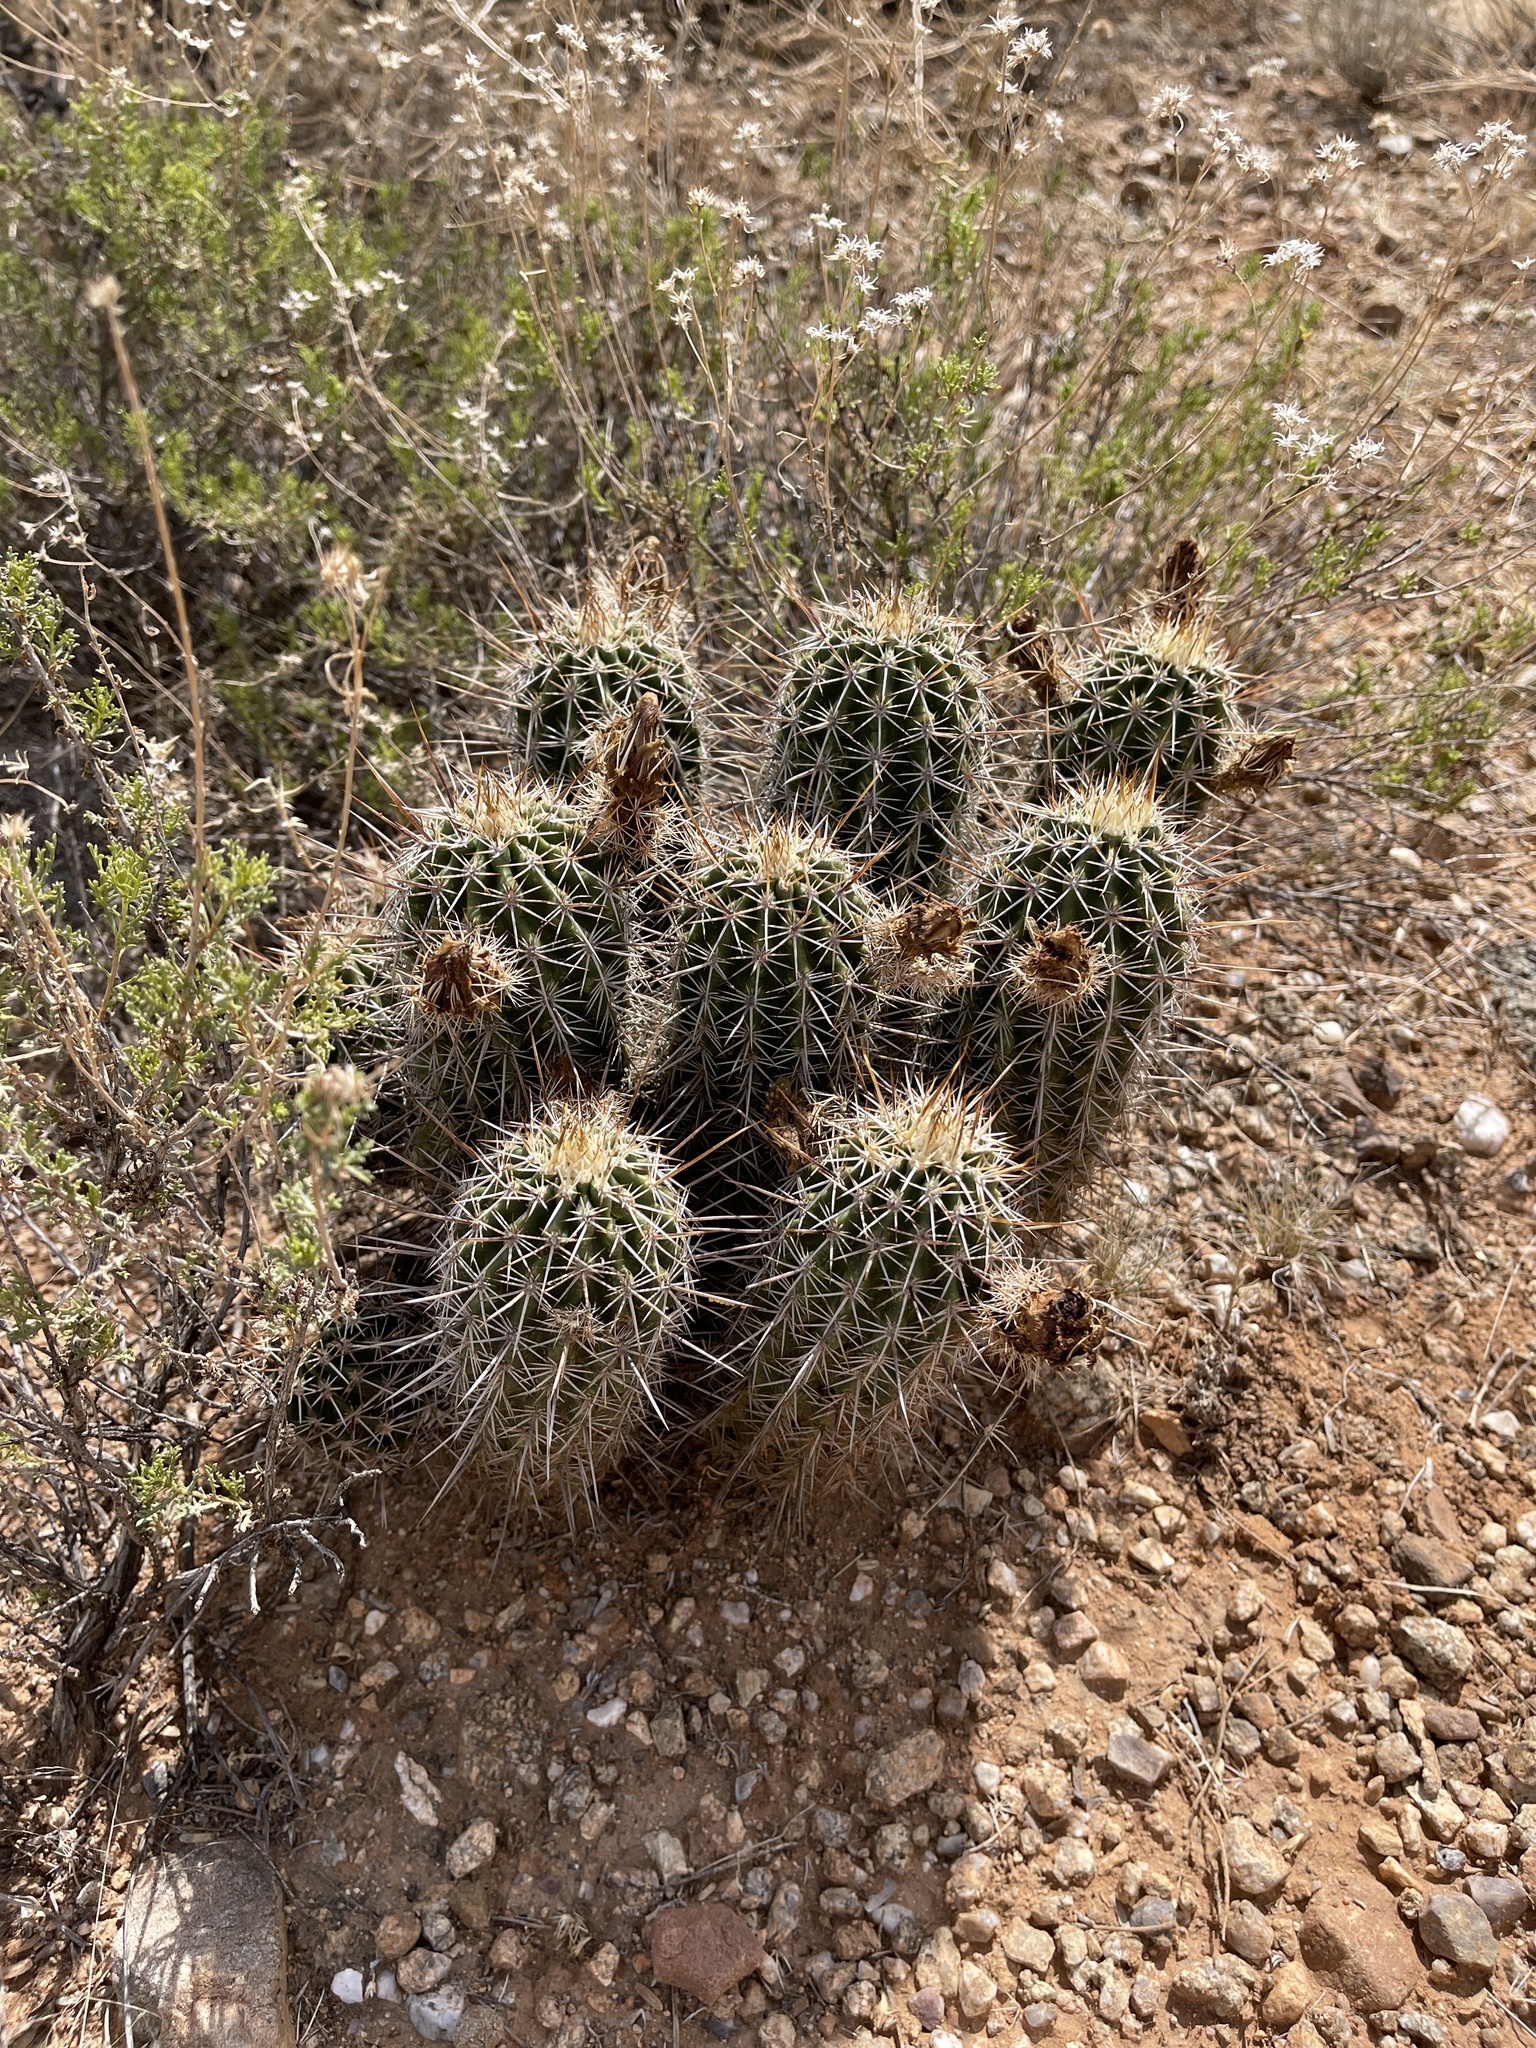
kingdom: Plantae
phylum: Tracheophyta
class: Magnoliopsida
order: Caryophyllales
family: Cactaceae
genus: Echinocereus
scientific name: Echinocereus fasciculatus
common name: Bundle hedgehog
